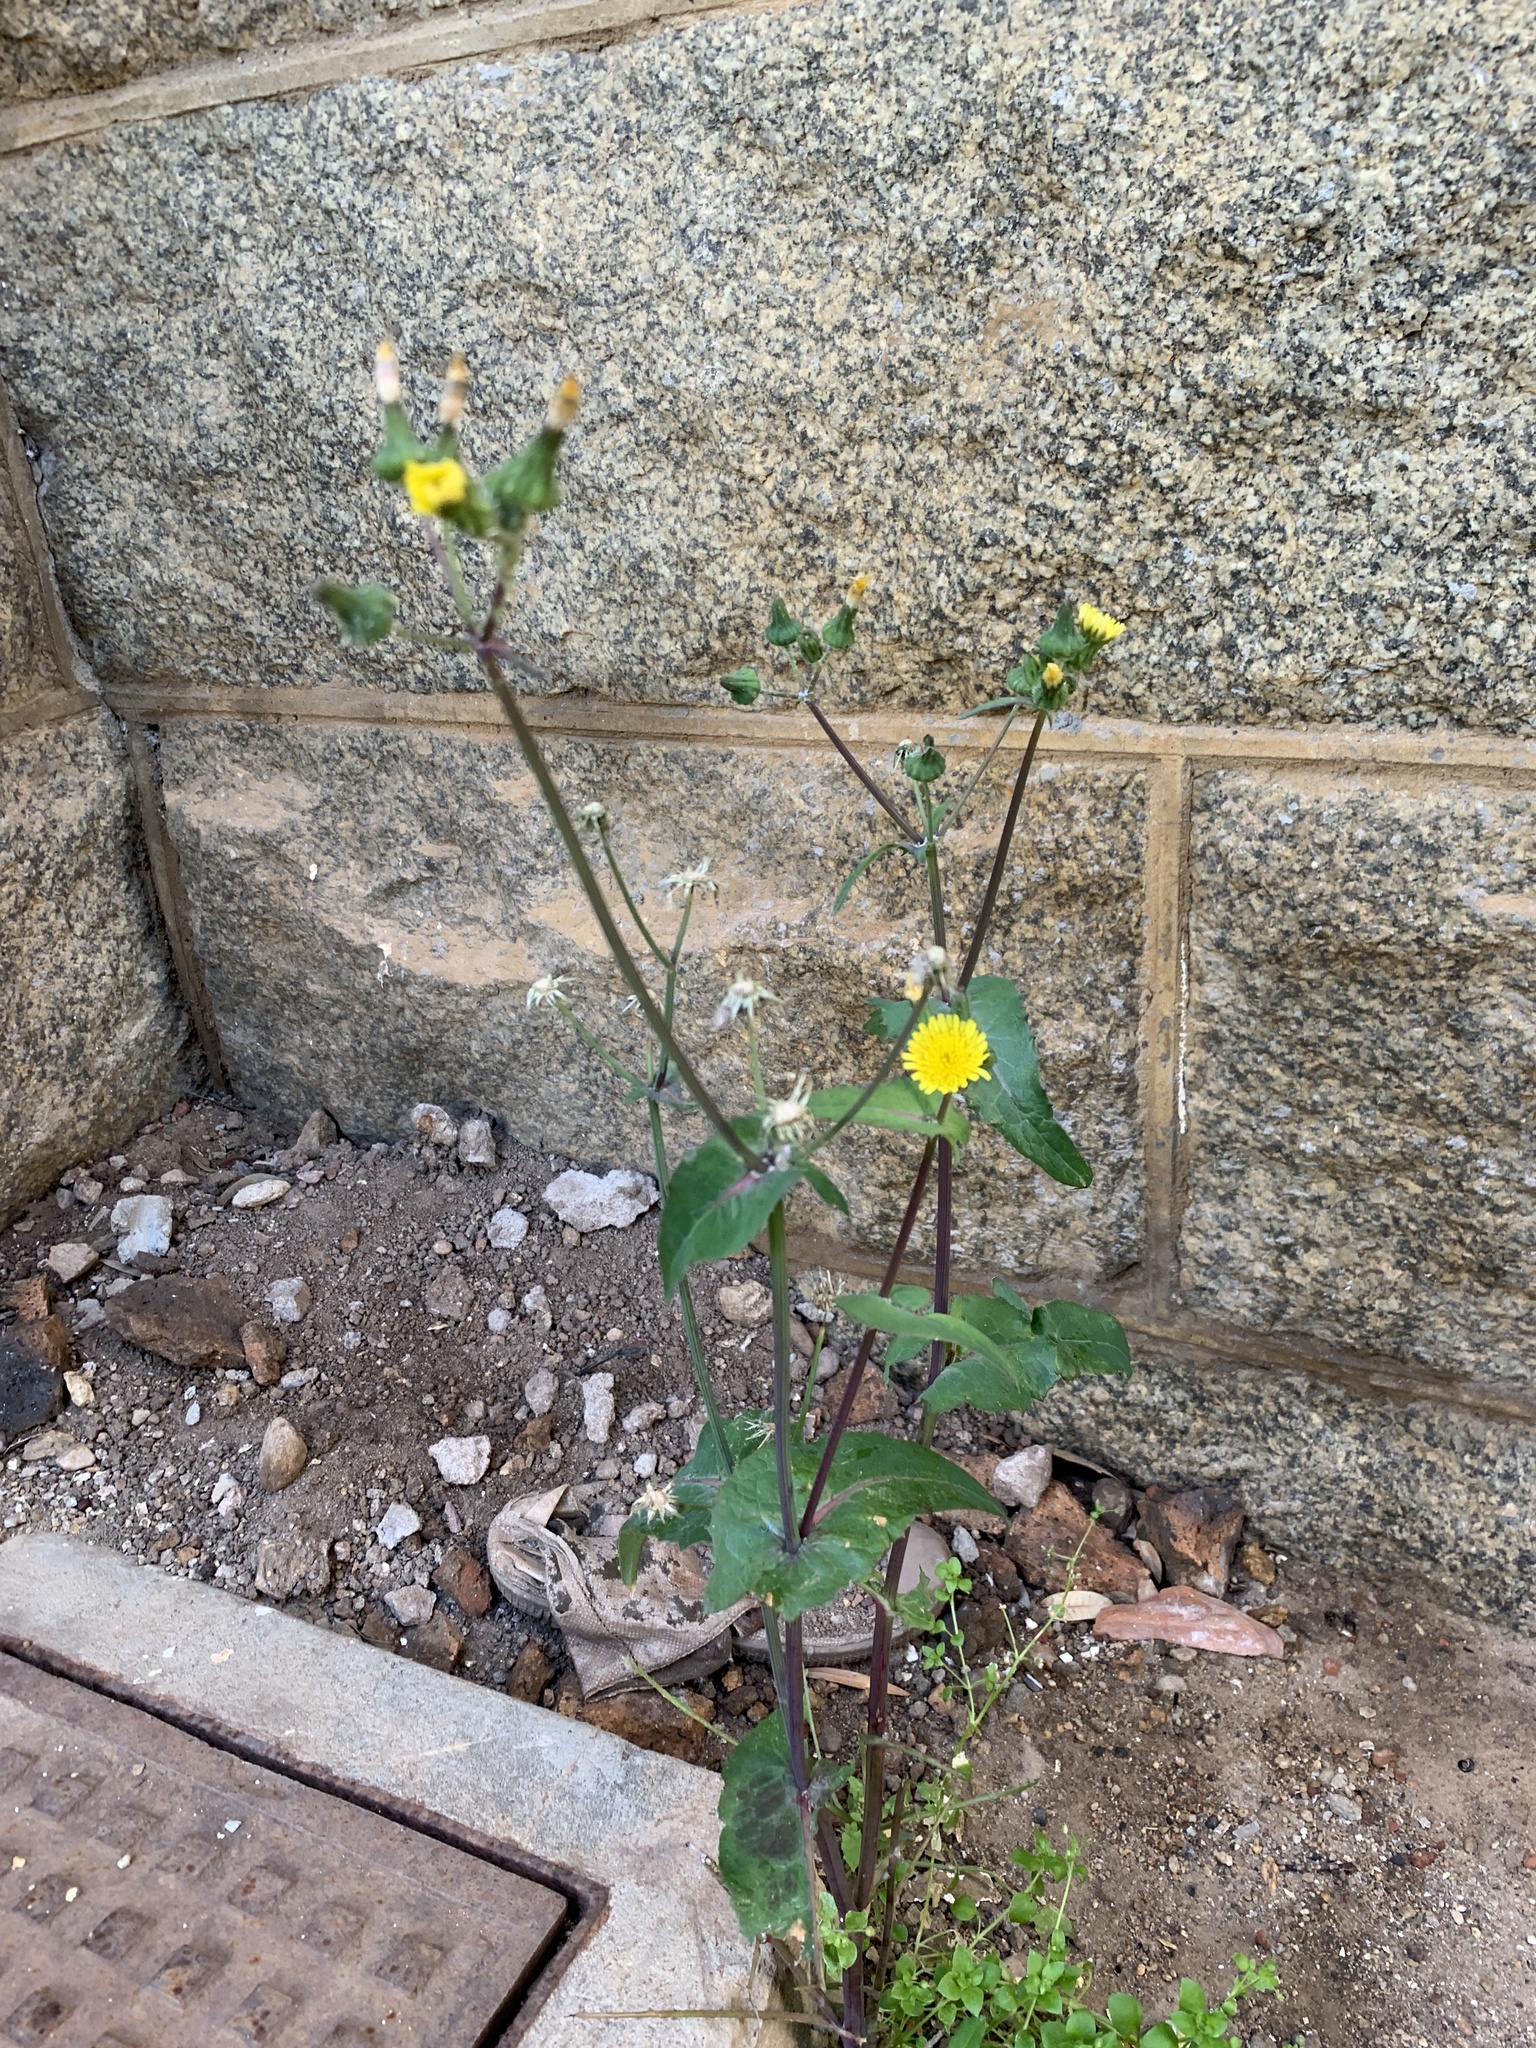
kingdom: Plantae
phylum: Tracheophyta
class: Magnoliopsida
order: Asterales
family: Asteraceae
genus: Sonchus
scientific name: Sonchus oleraceus
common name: Common sowthistle
